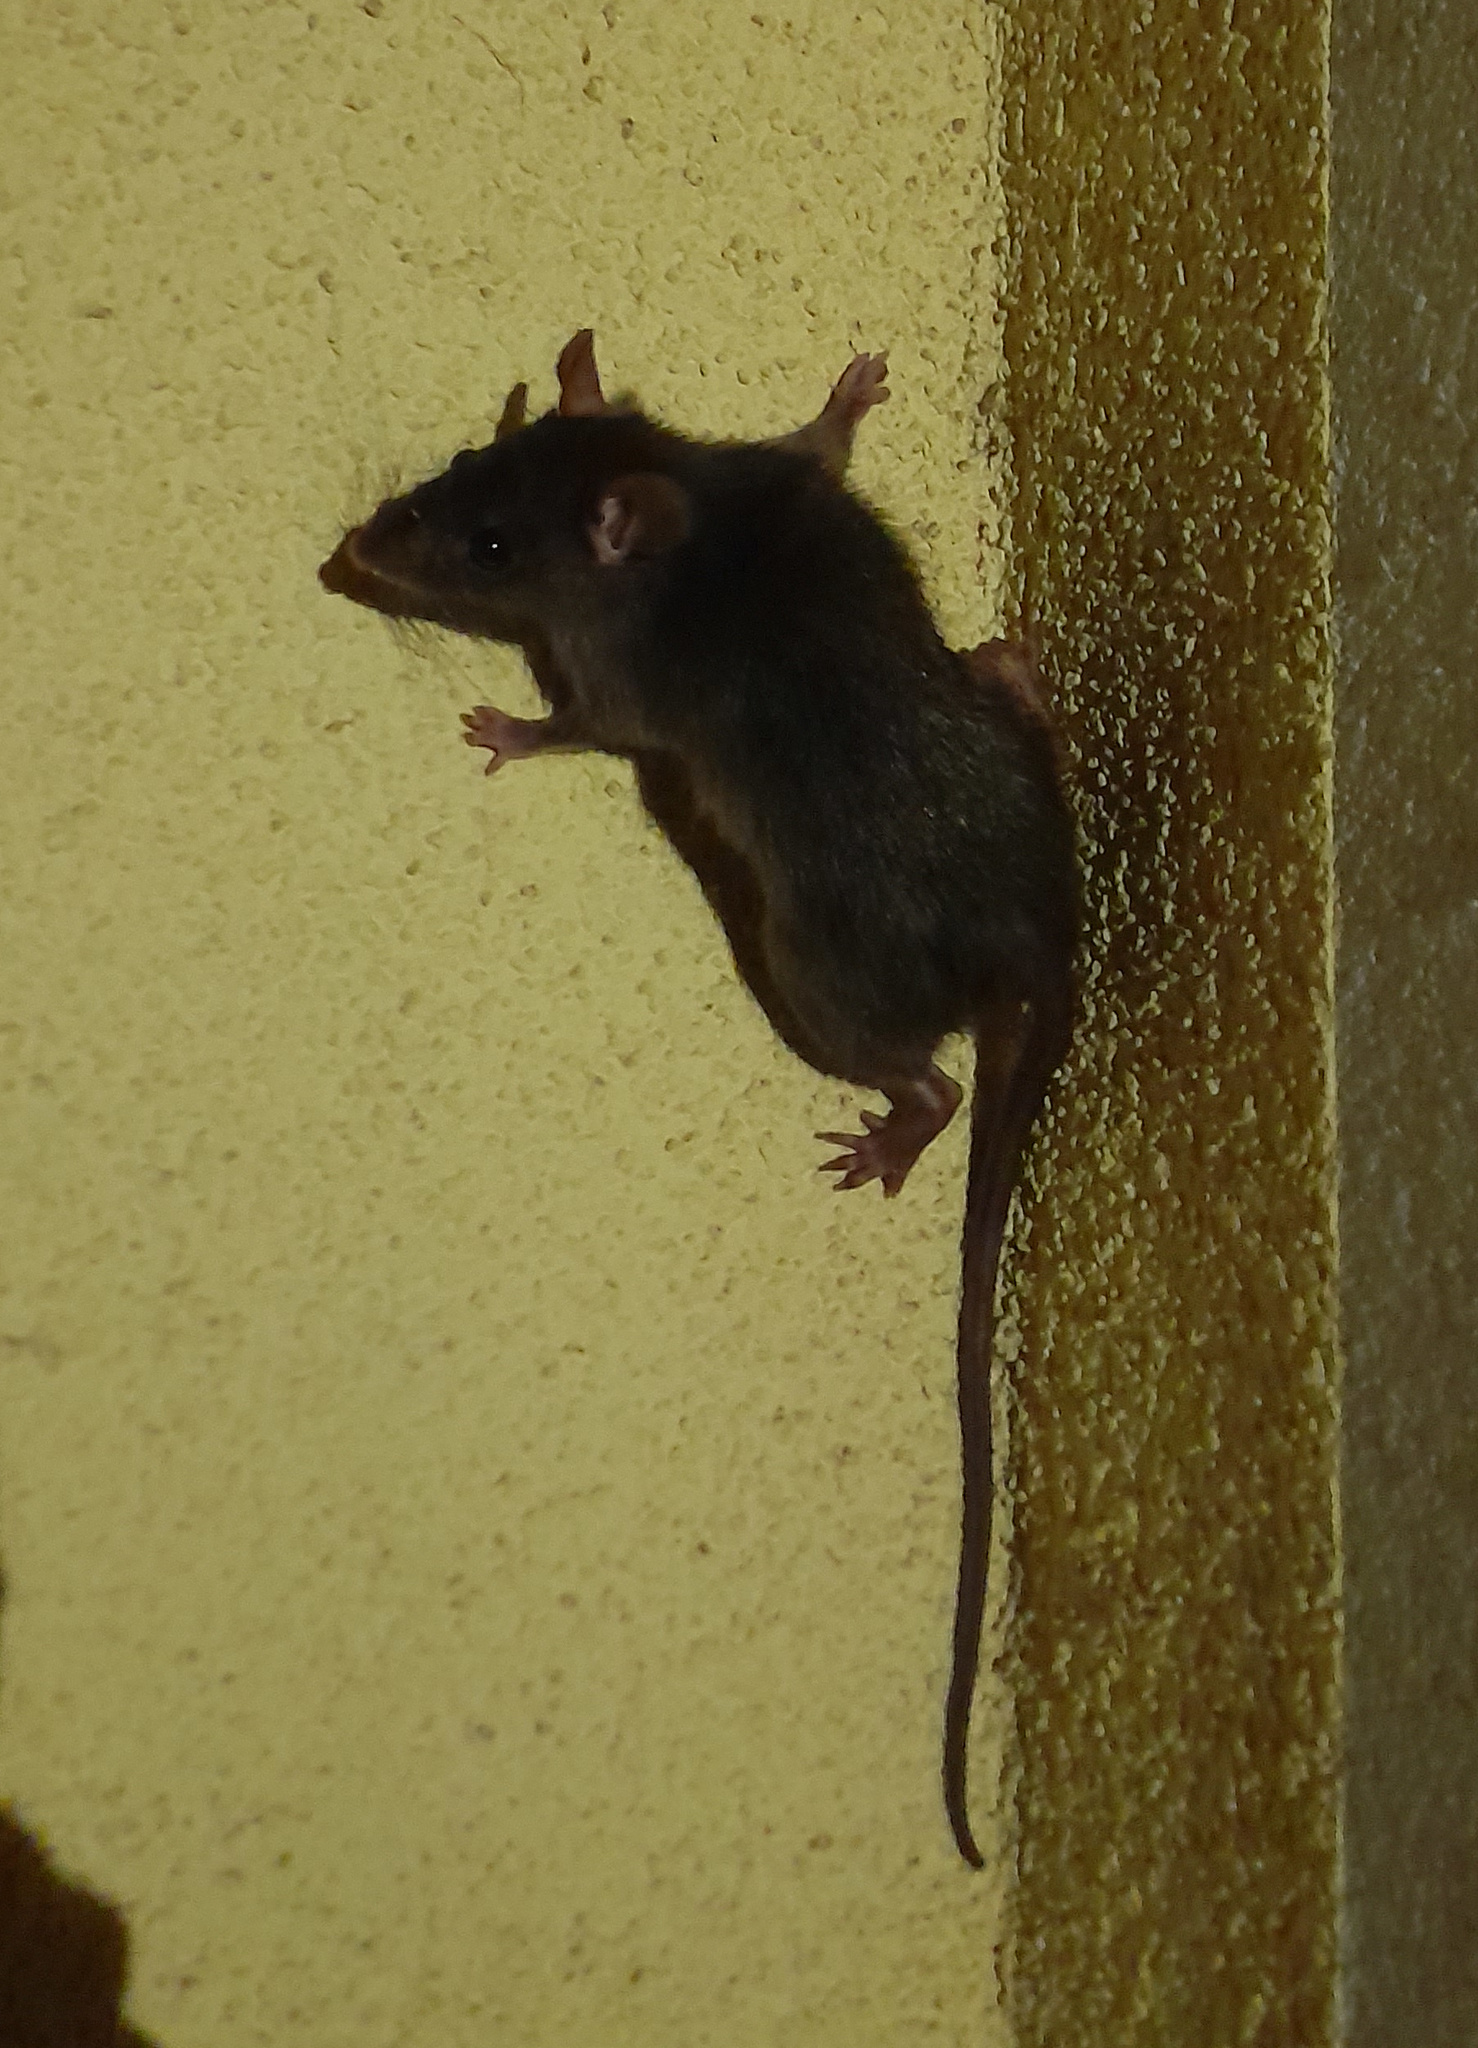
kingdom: Animalia
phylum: Chordata
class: Mammalia
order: Rodentia
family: Muridae
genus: Rattus
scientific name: Rattus rattus
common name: Black rat
